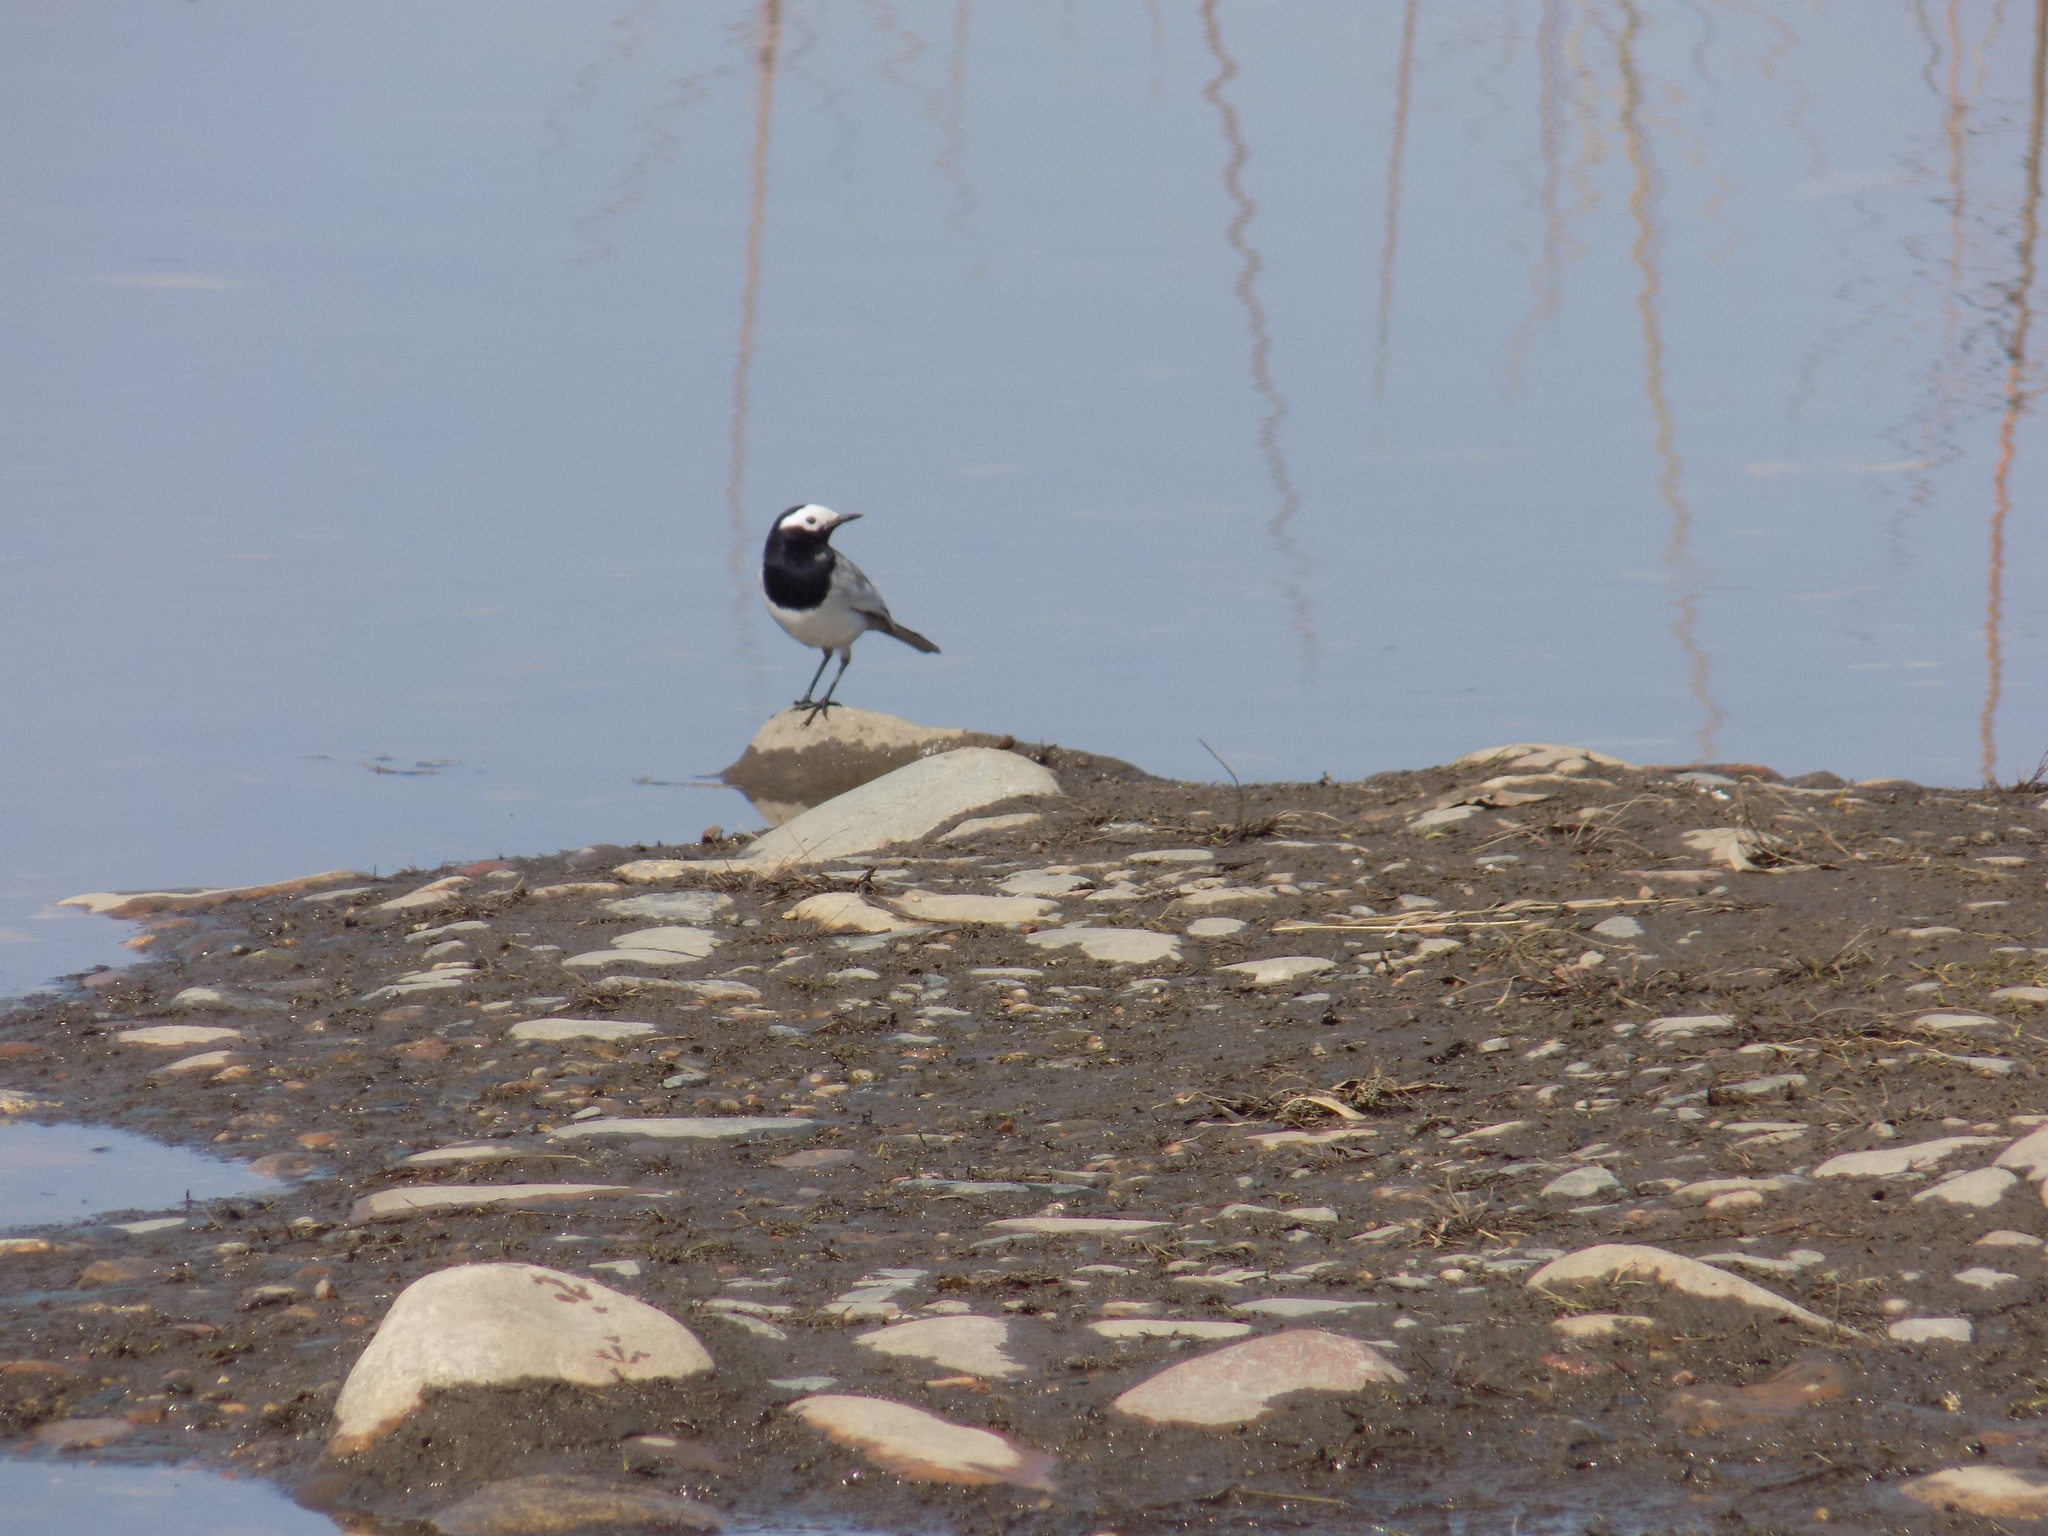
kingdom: Animalia
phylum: Chordata
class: Aves
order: Passeriformes
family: Motacillidae
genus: Motacilla
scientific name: Motacilla alba
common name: White wagtail
